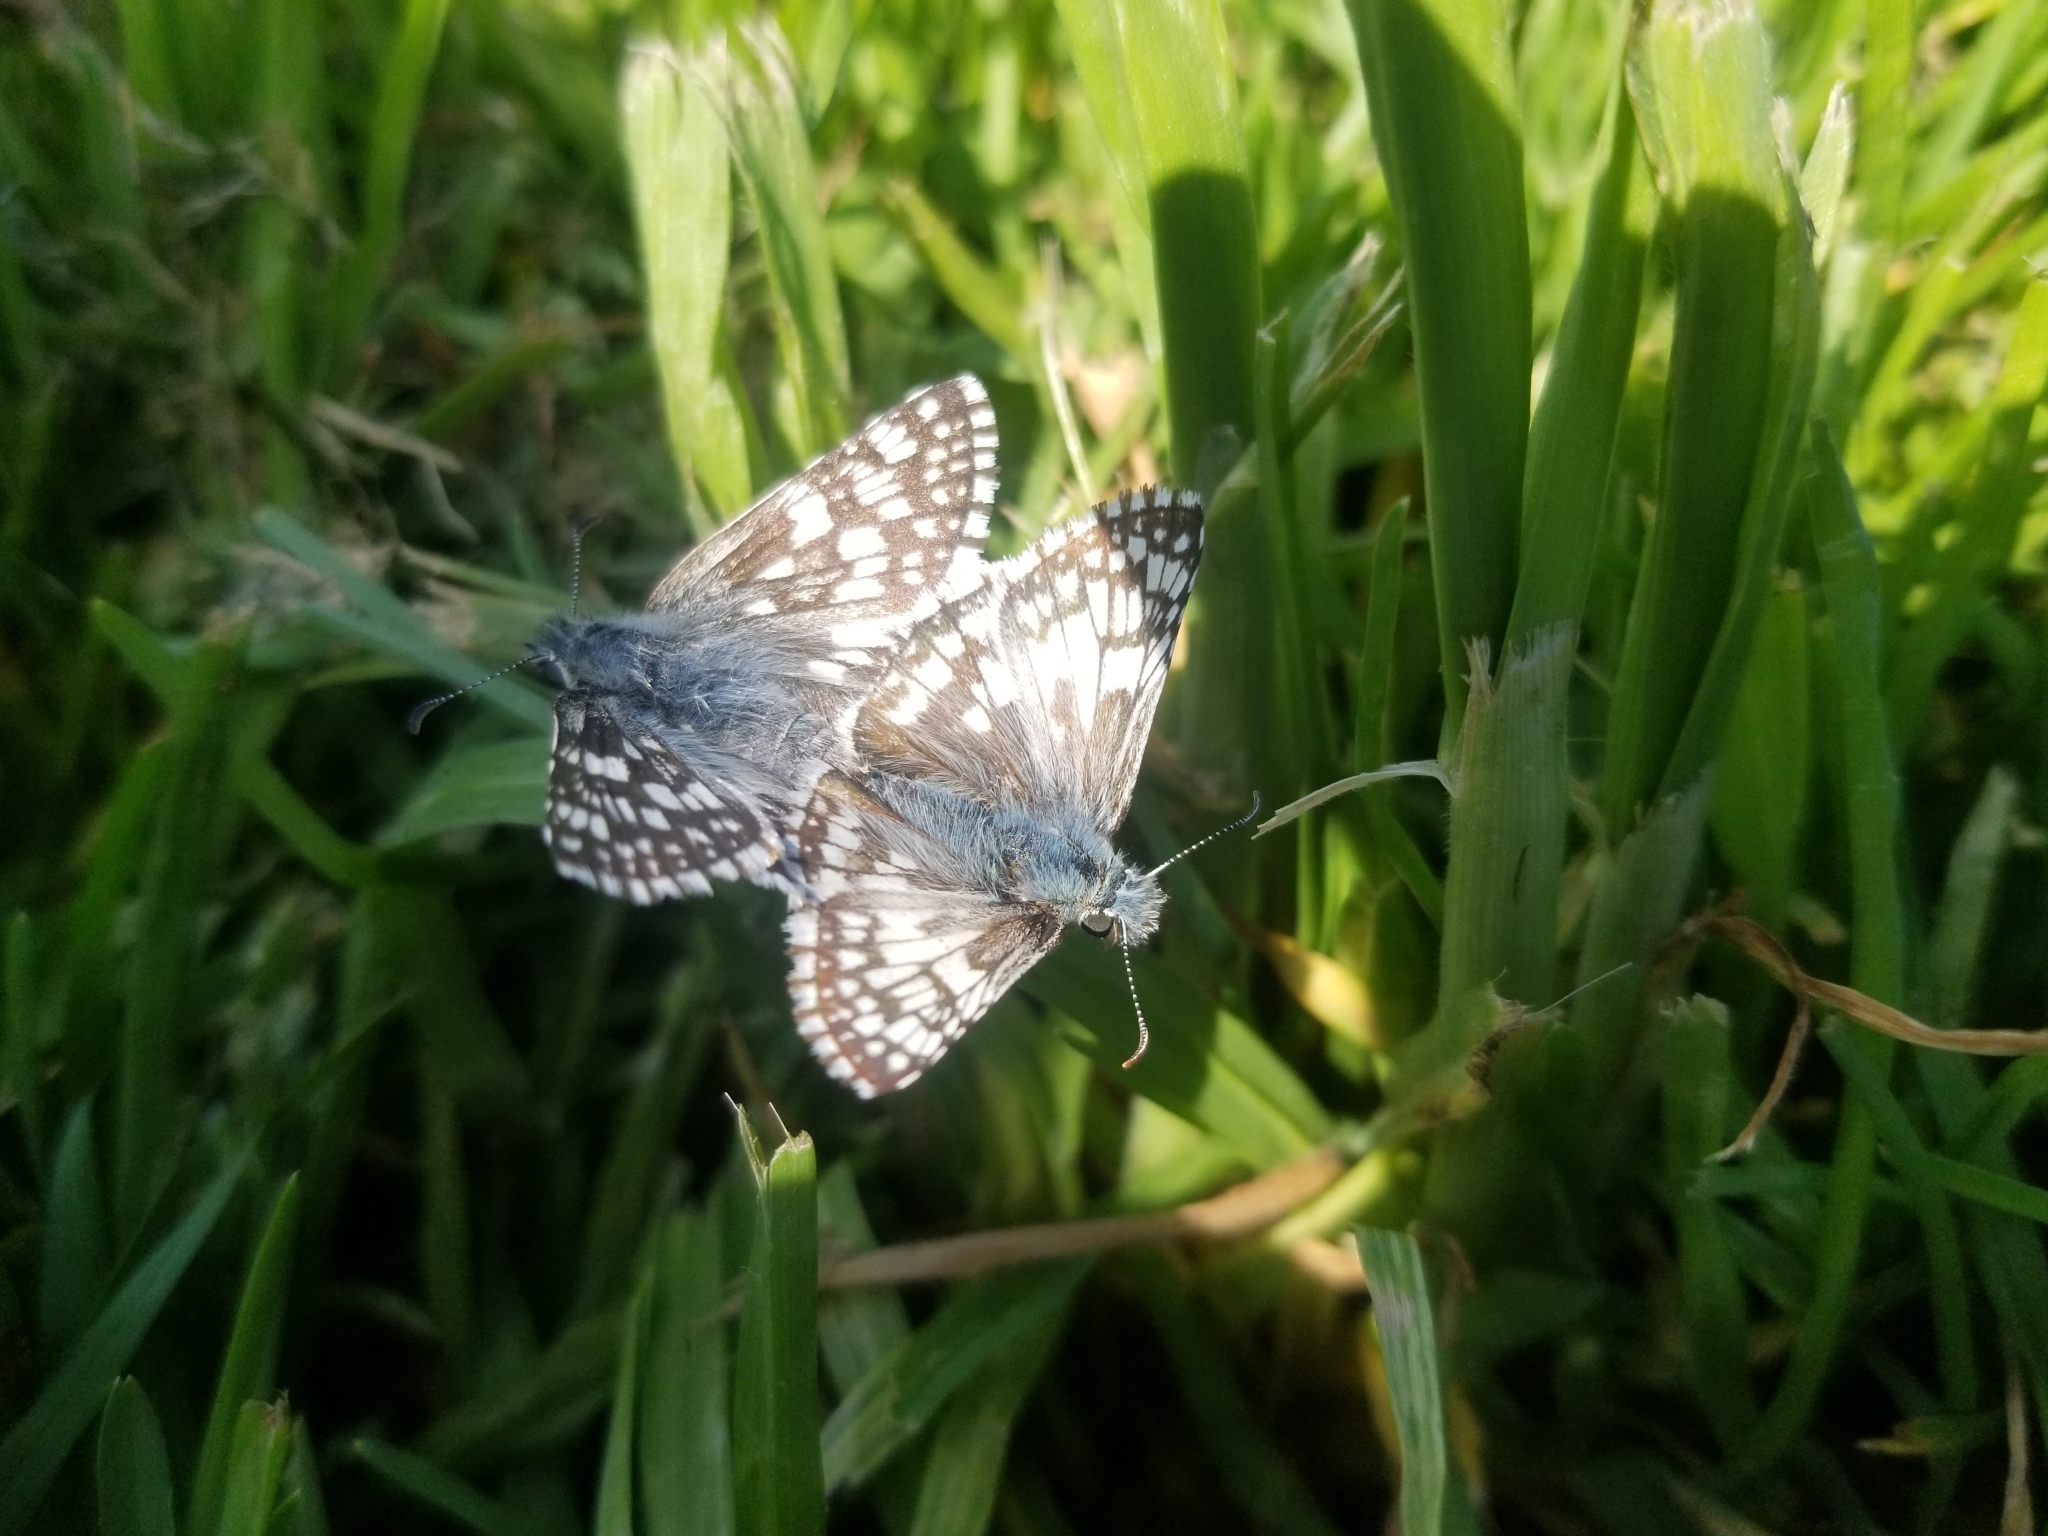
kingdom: Animalia
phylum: Arthropoda
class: Insecta
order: Lepidoptera
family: Hesperiidae
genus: Burnsius
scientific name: Burnsius communis
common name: Common checkered-skipper
